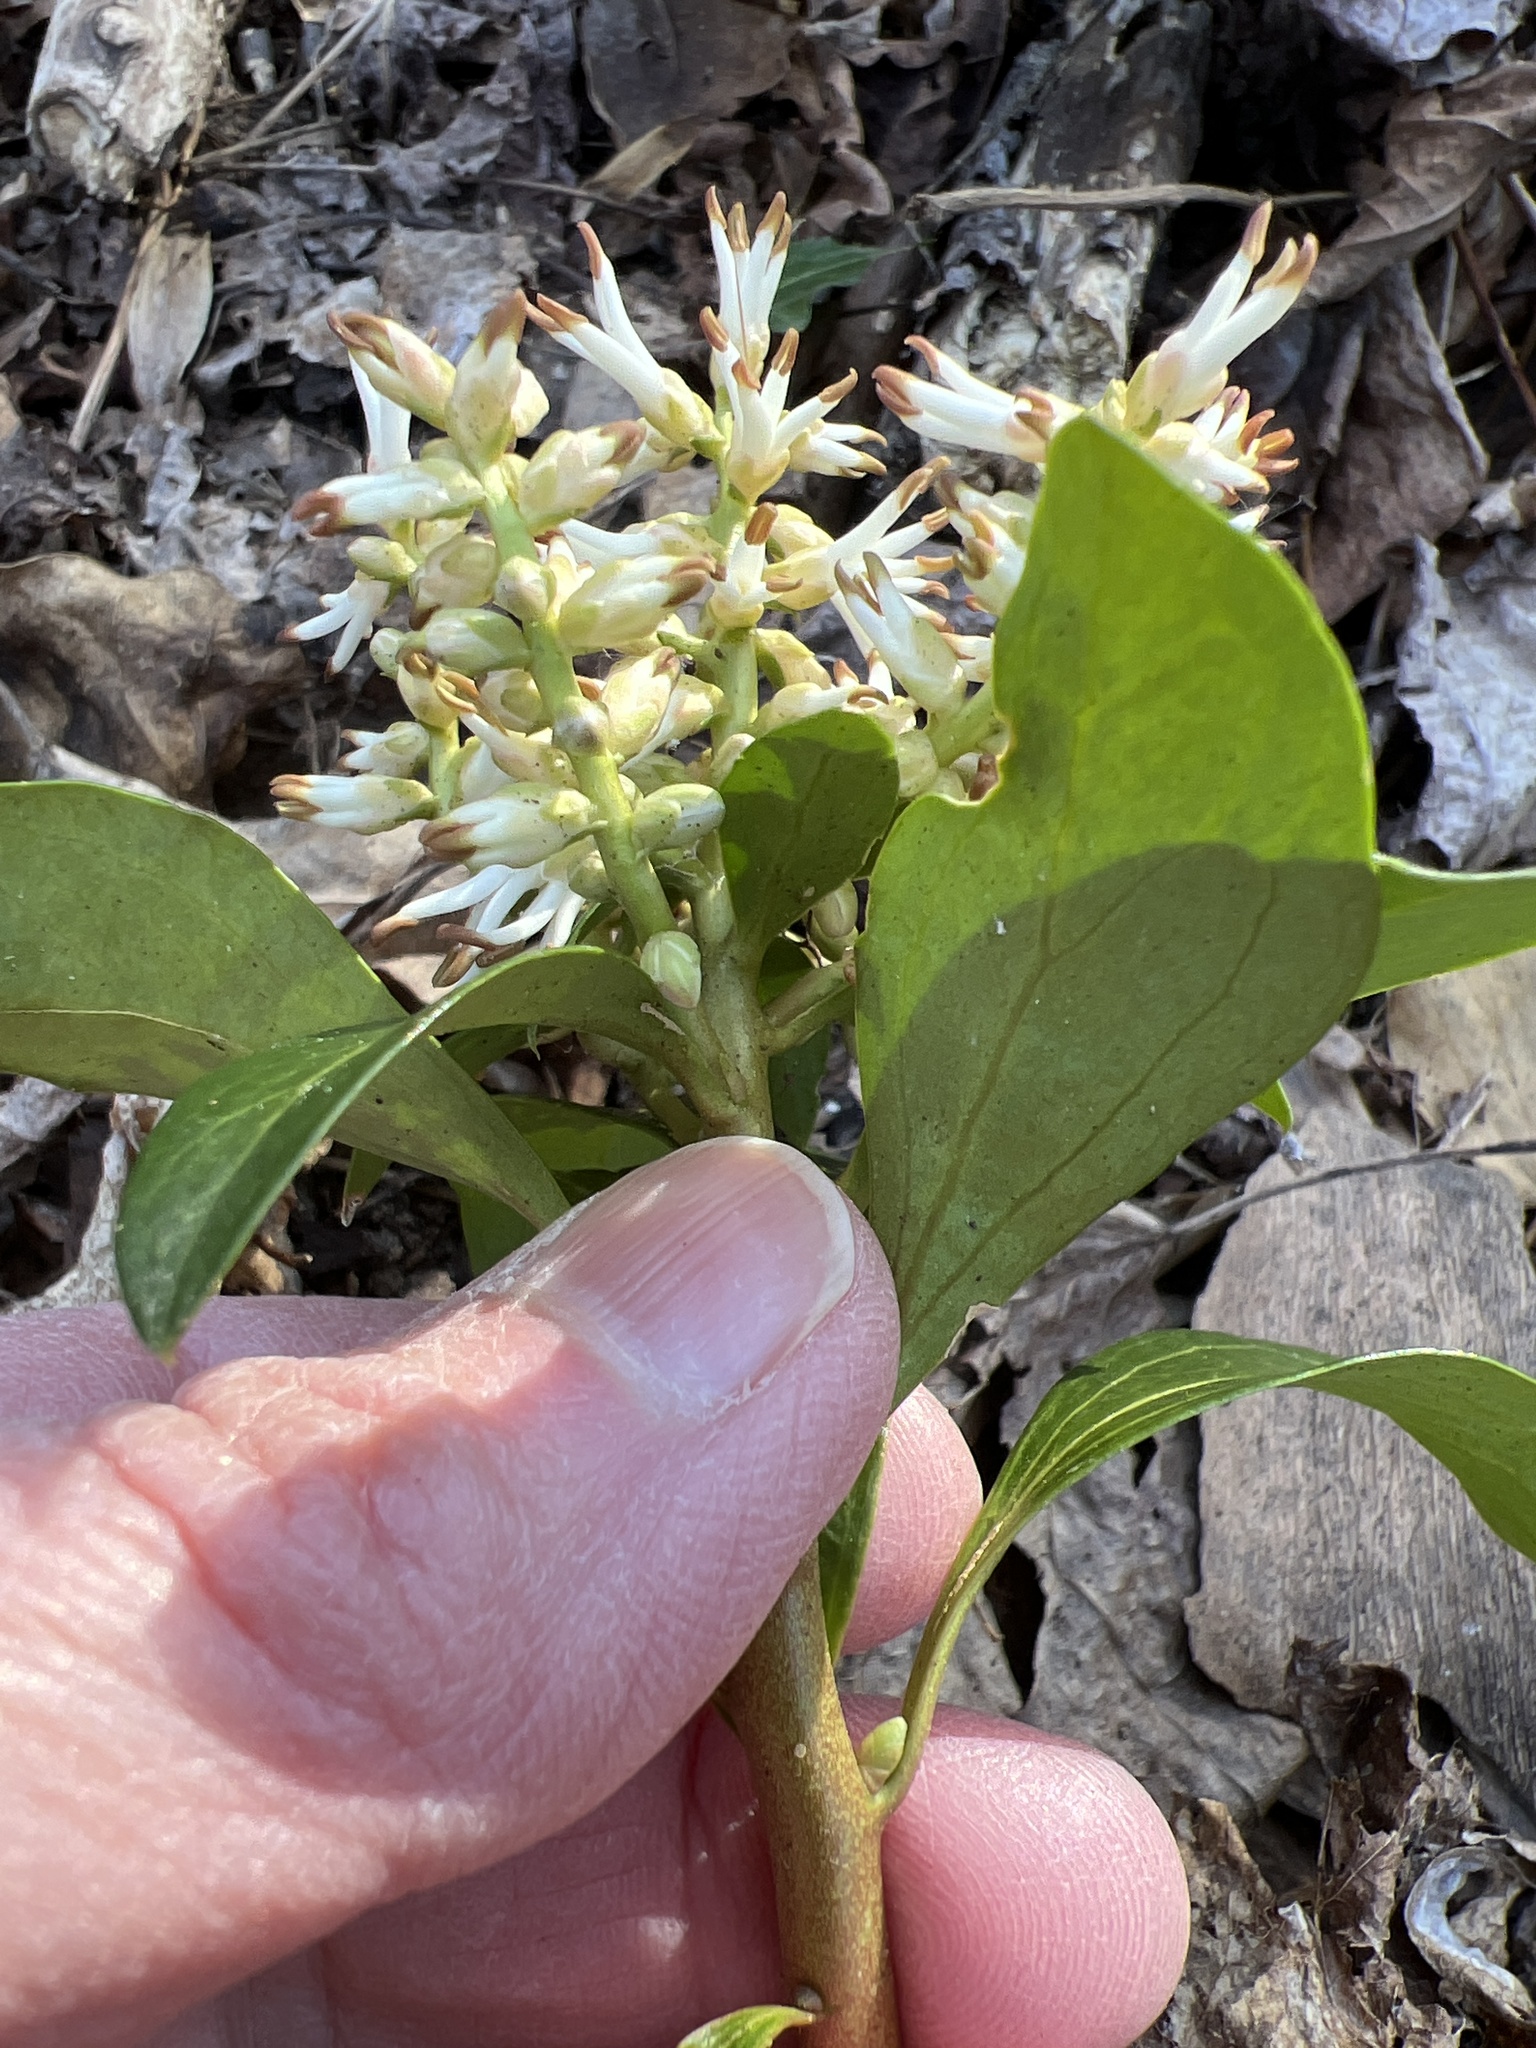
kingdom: Plantae
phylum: Tracheophyta
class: Magnoliopsida
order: Buxales
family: Buxaceae
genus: Pachysandra
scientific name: Pachysandra terminalis
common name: Japanese pachysandra
